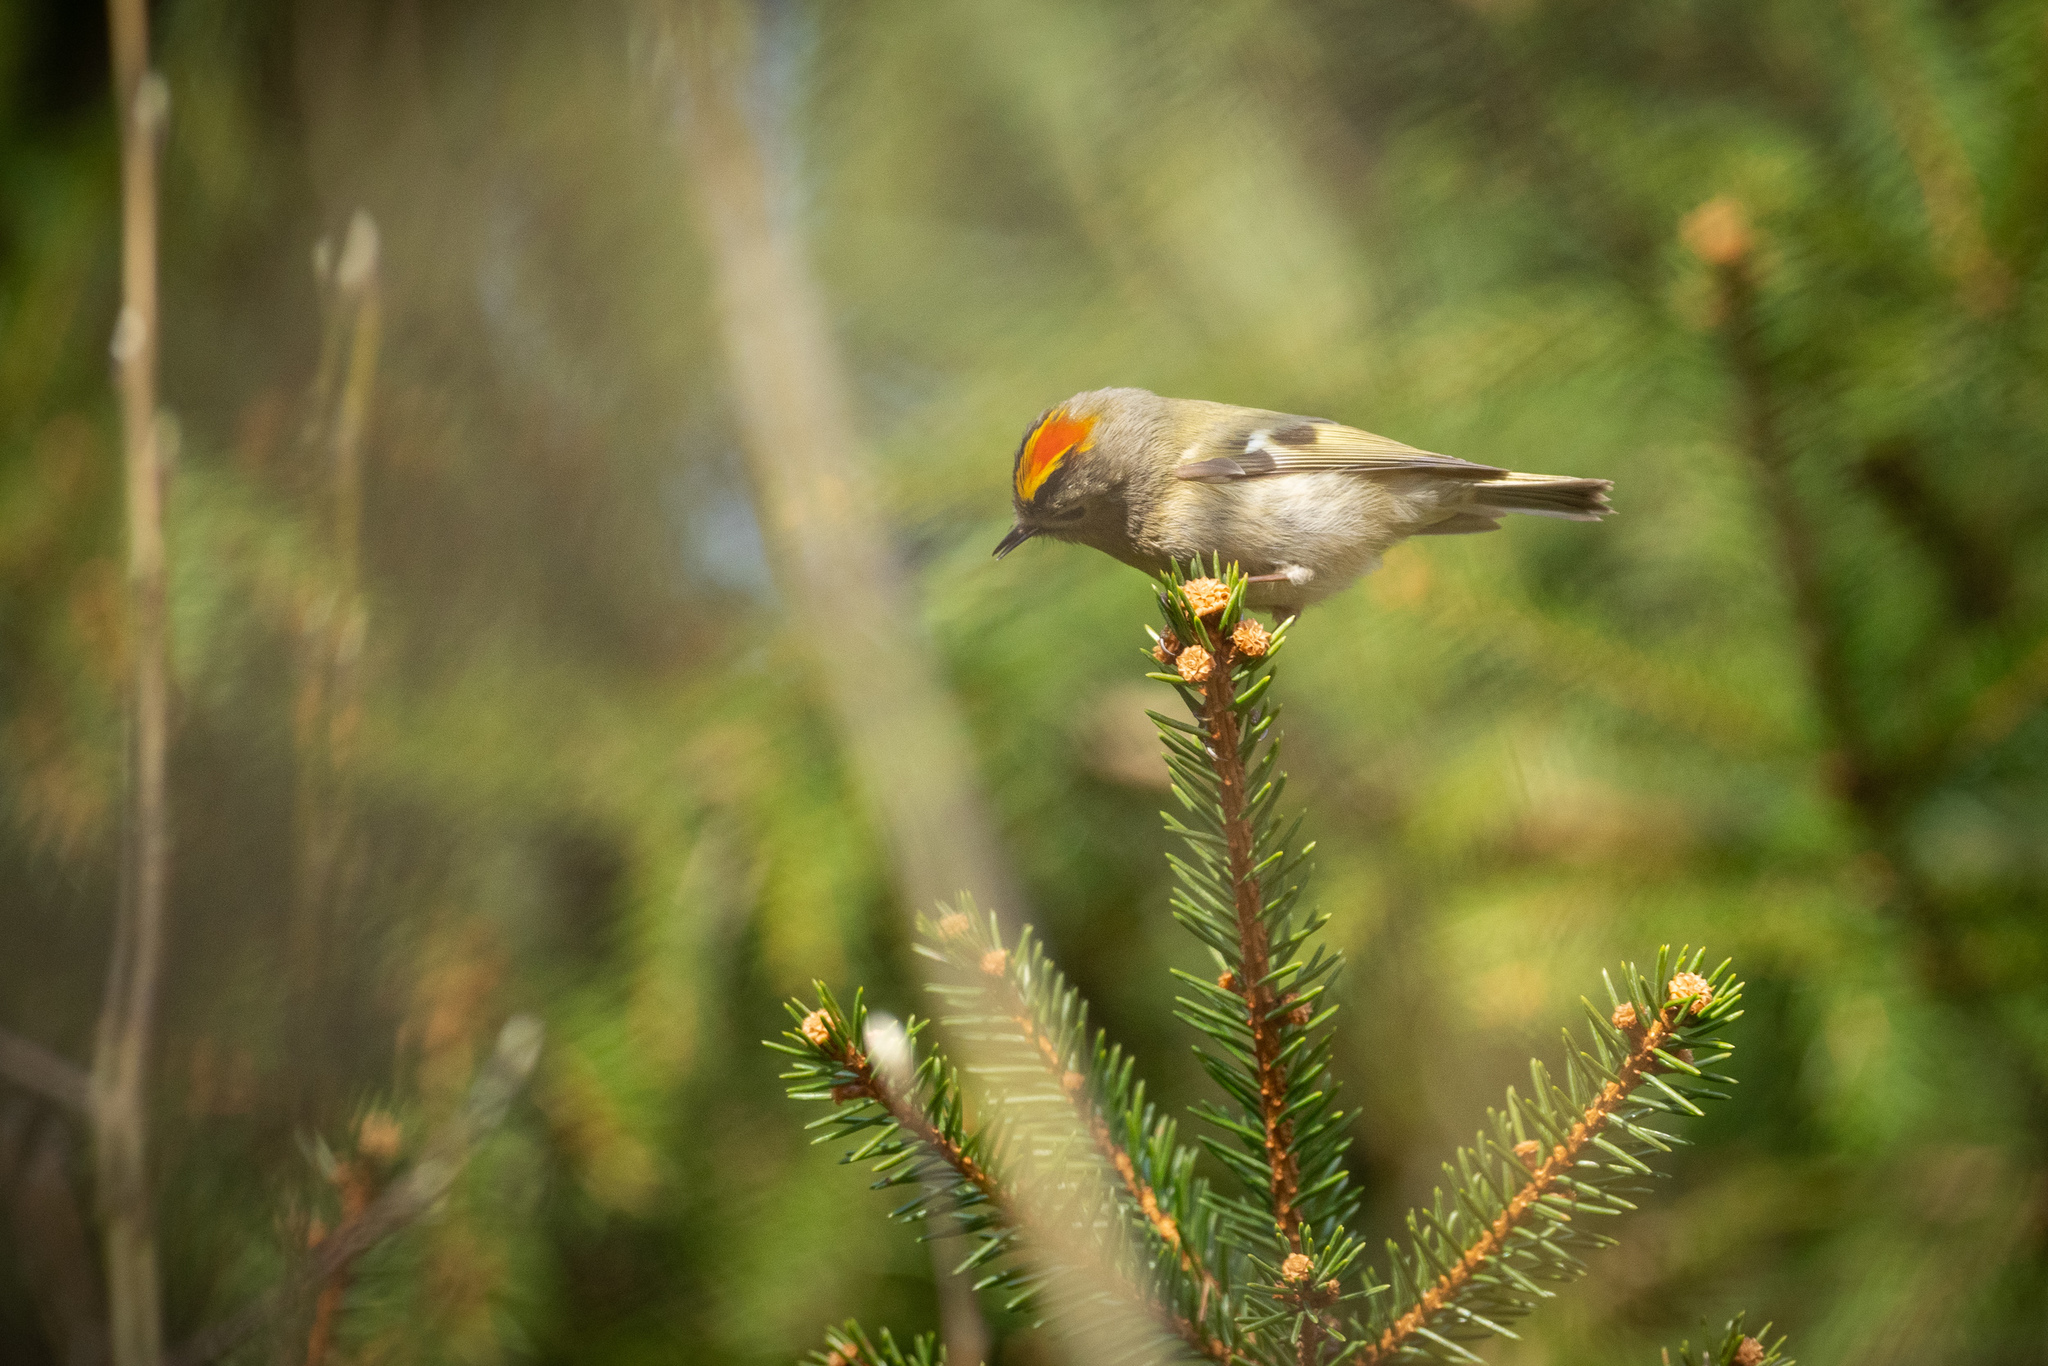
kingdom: Animalia
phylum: Chordata
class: Aves
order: Passeriformes
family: Regulidae
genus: Regulus
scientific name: Regulus regulus
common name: Goldcrest
